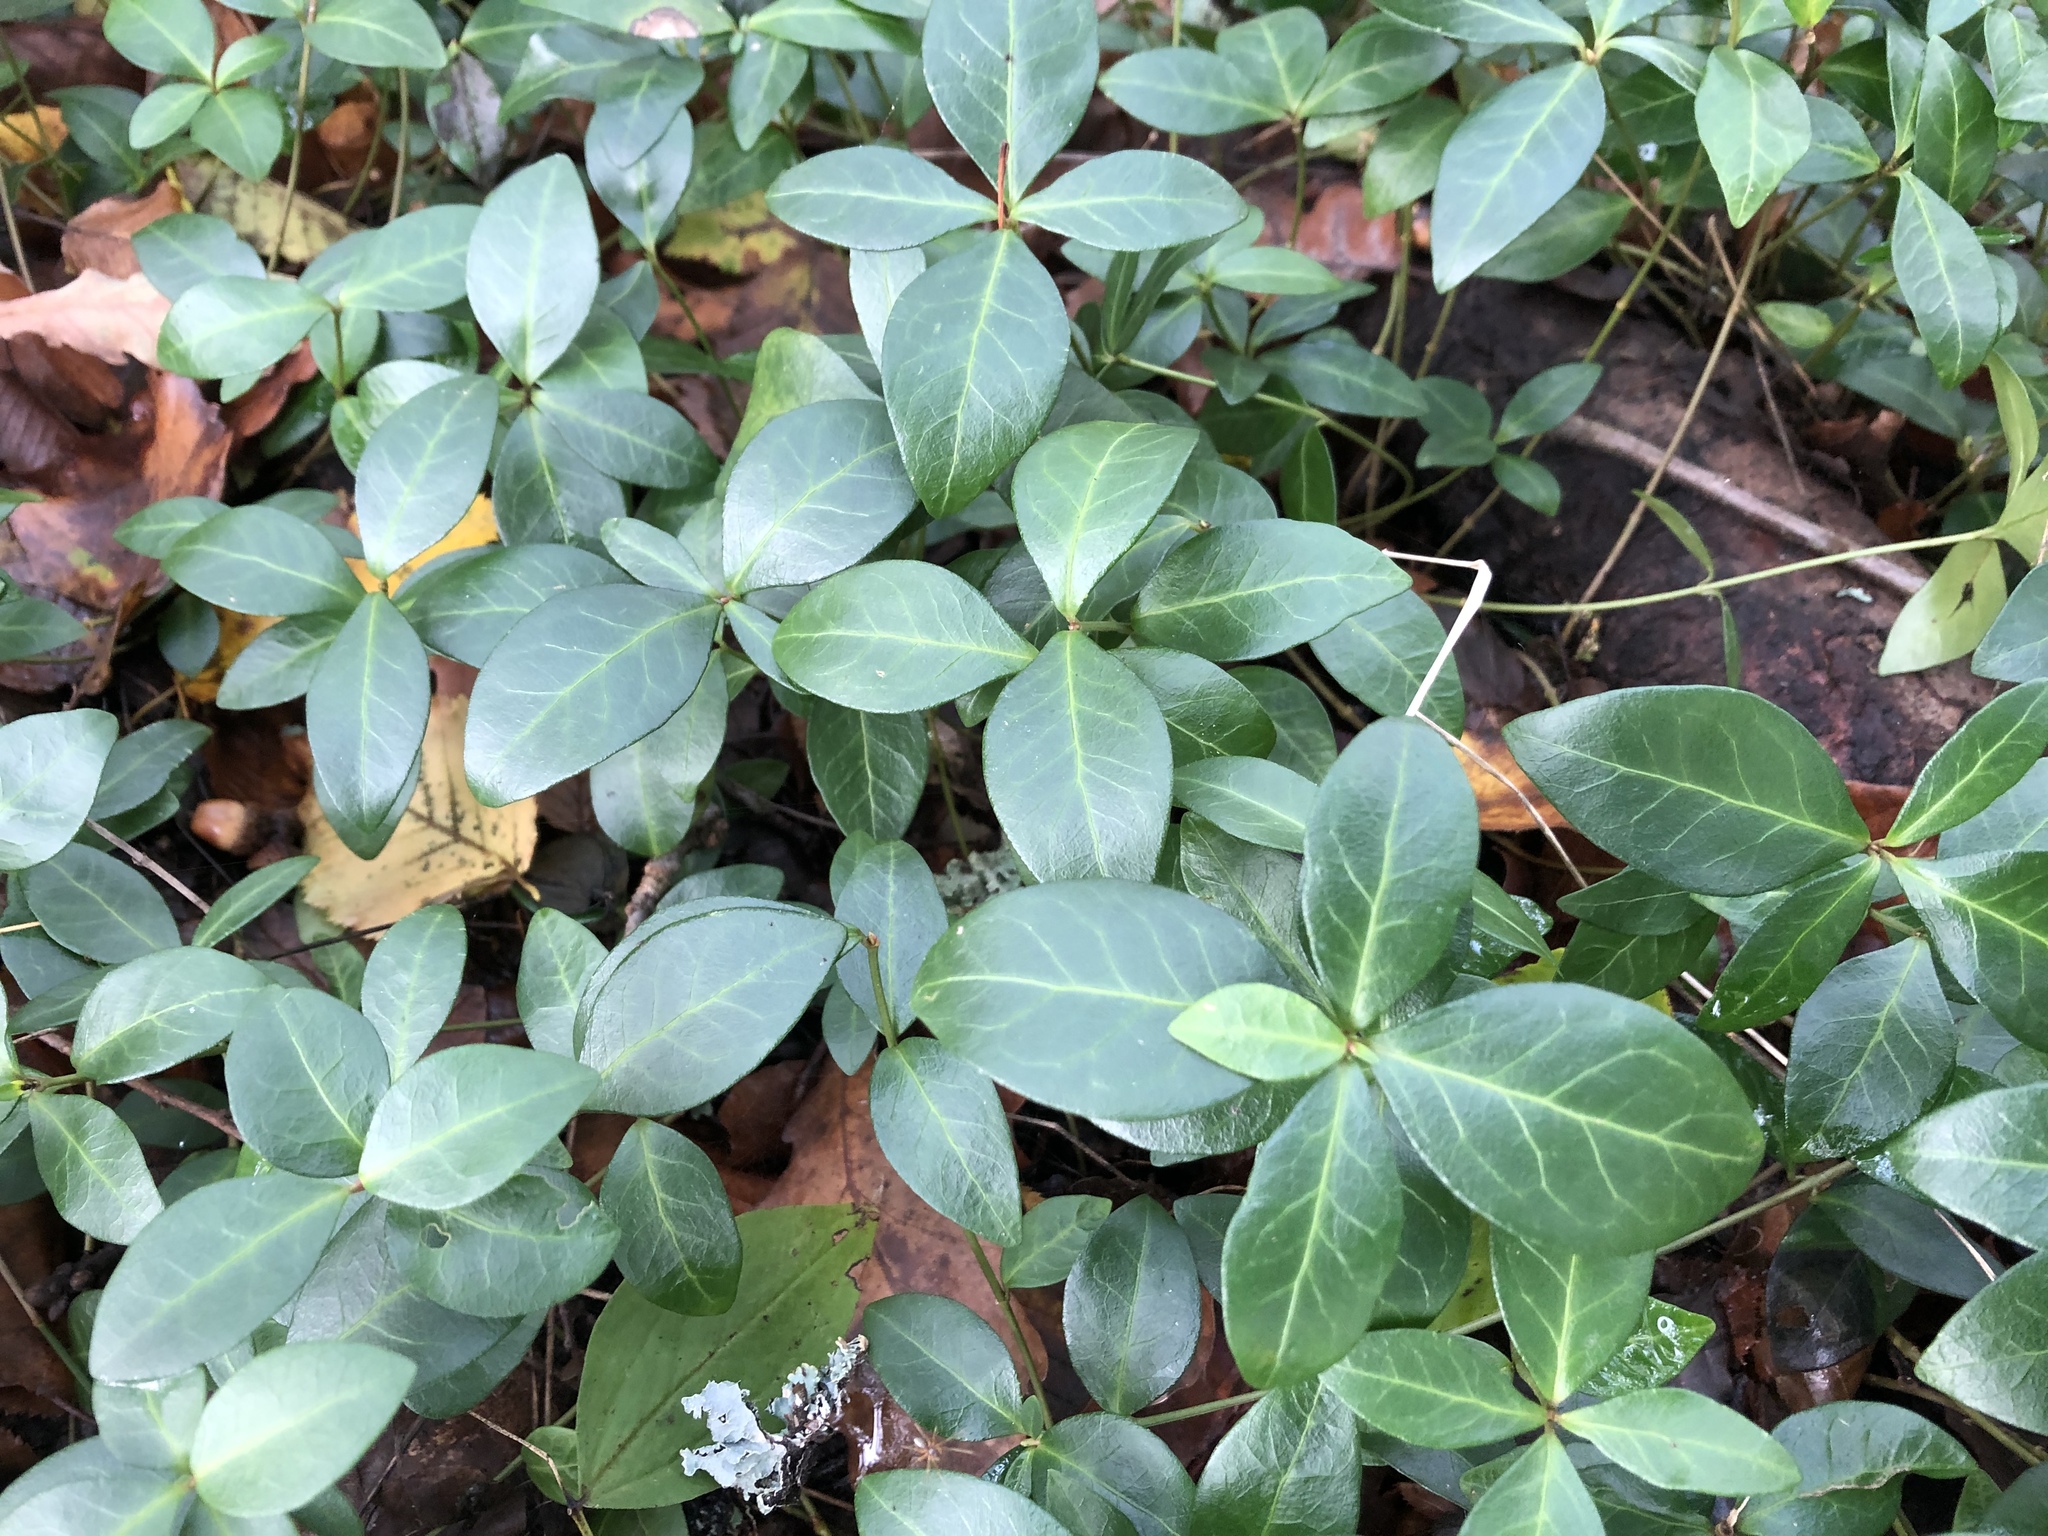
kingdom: Plantae
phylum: Tracheophyta
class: Magnoliopsida
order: Gentianales
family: Apocynaceae
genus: Vinca
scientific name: Vinca minor
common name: Lesser periwinkle
